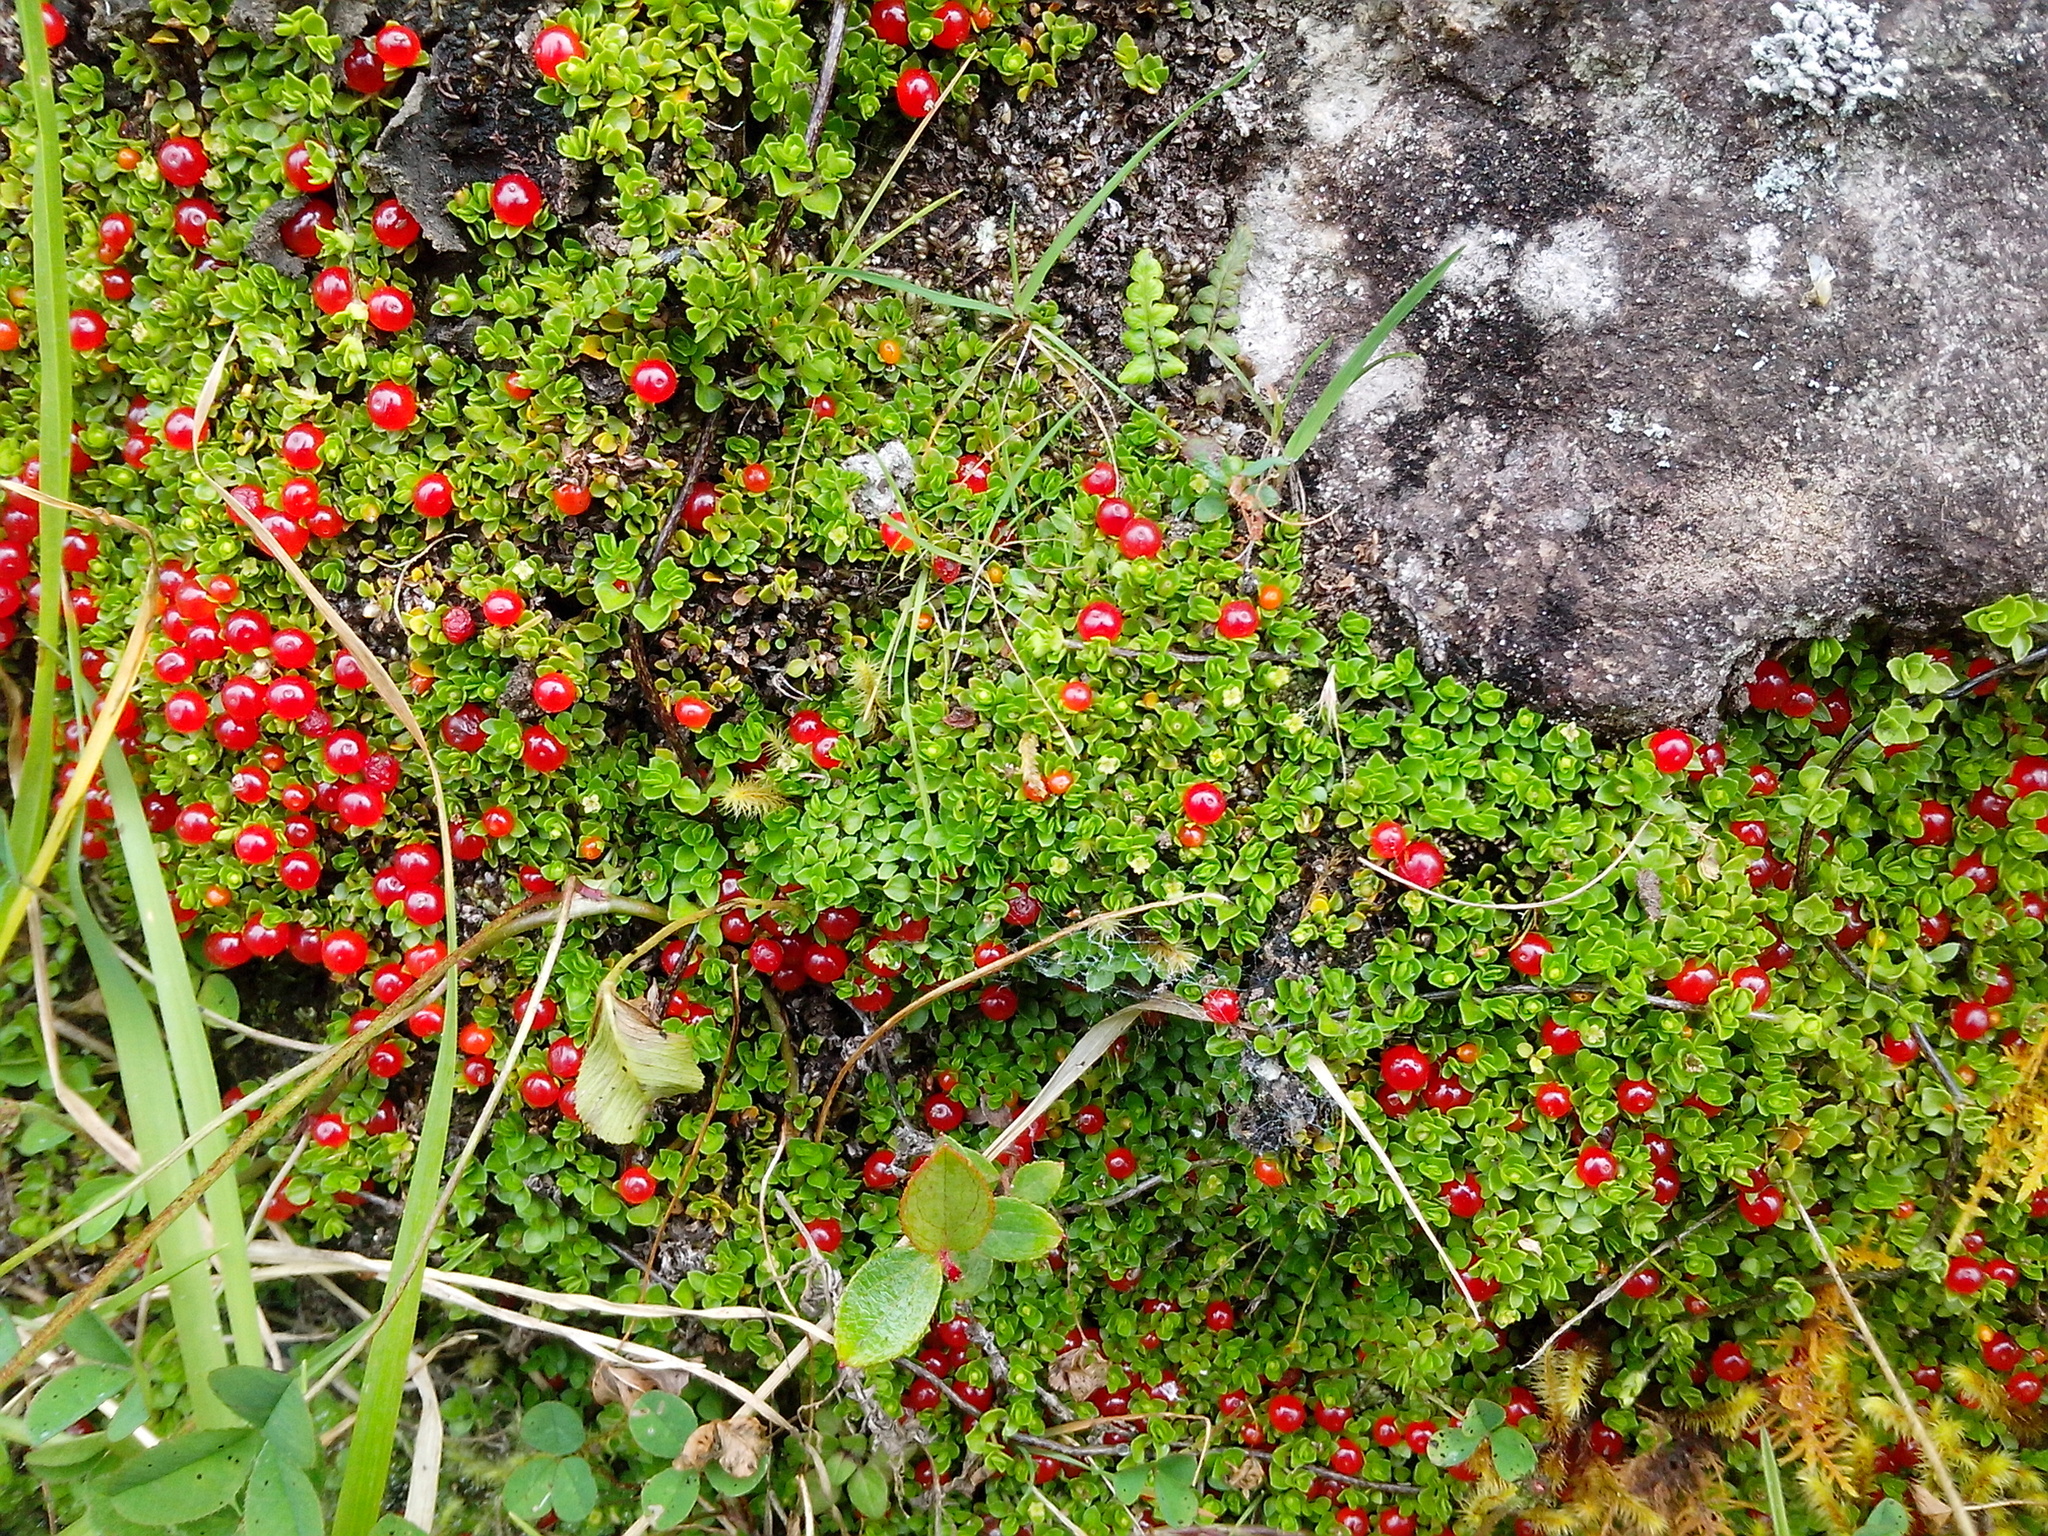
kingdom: Plantae
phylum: Tracheophyta
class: Magnoliopsida
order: Gentianales
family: Rubiaceae
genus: Nertera
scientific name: Nertera granadensis
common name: Beadplant
